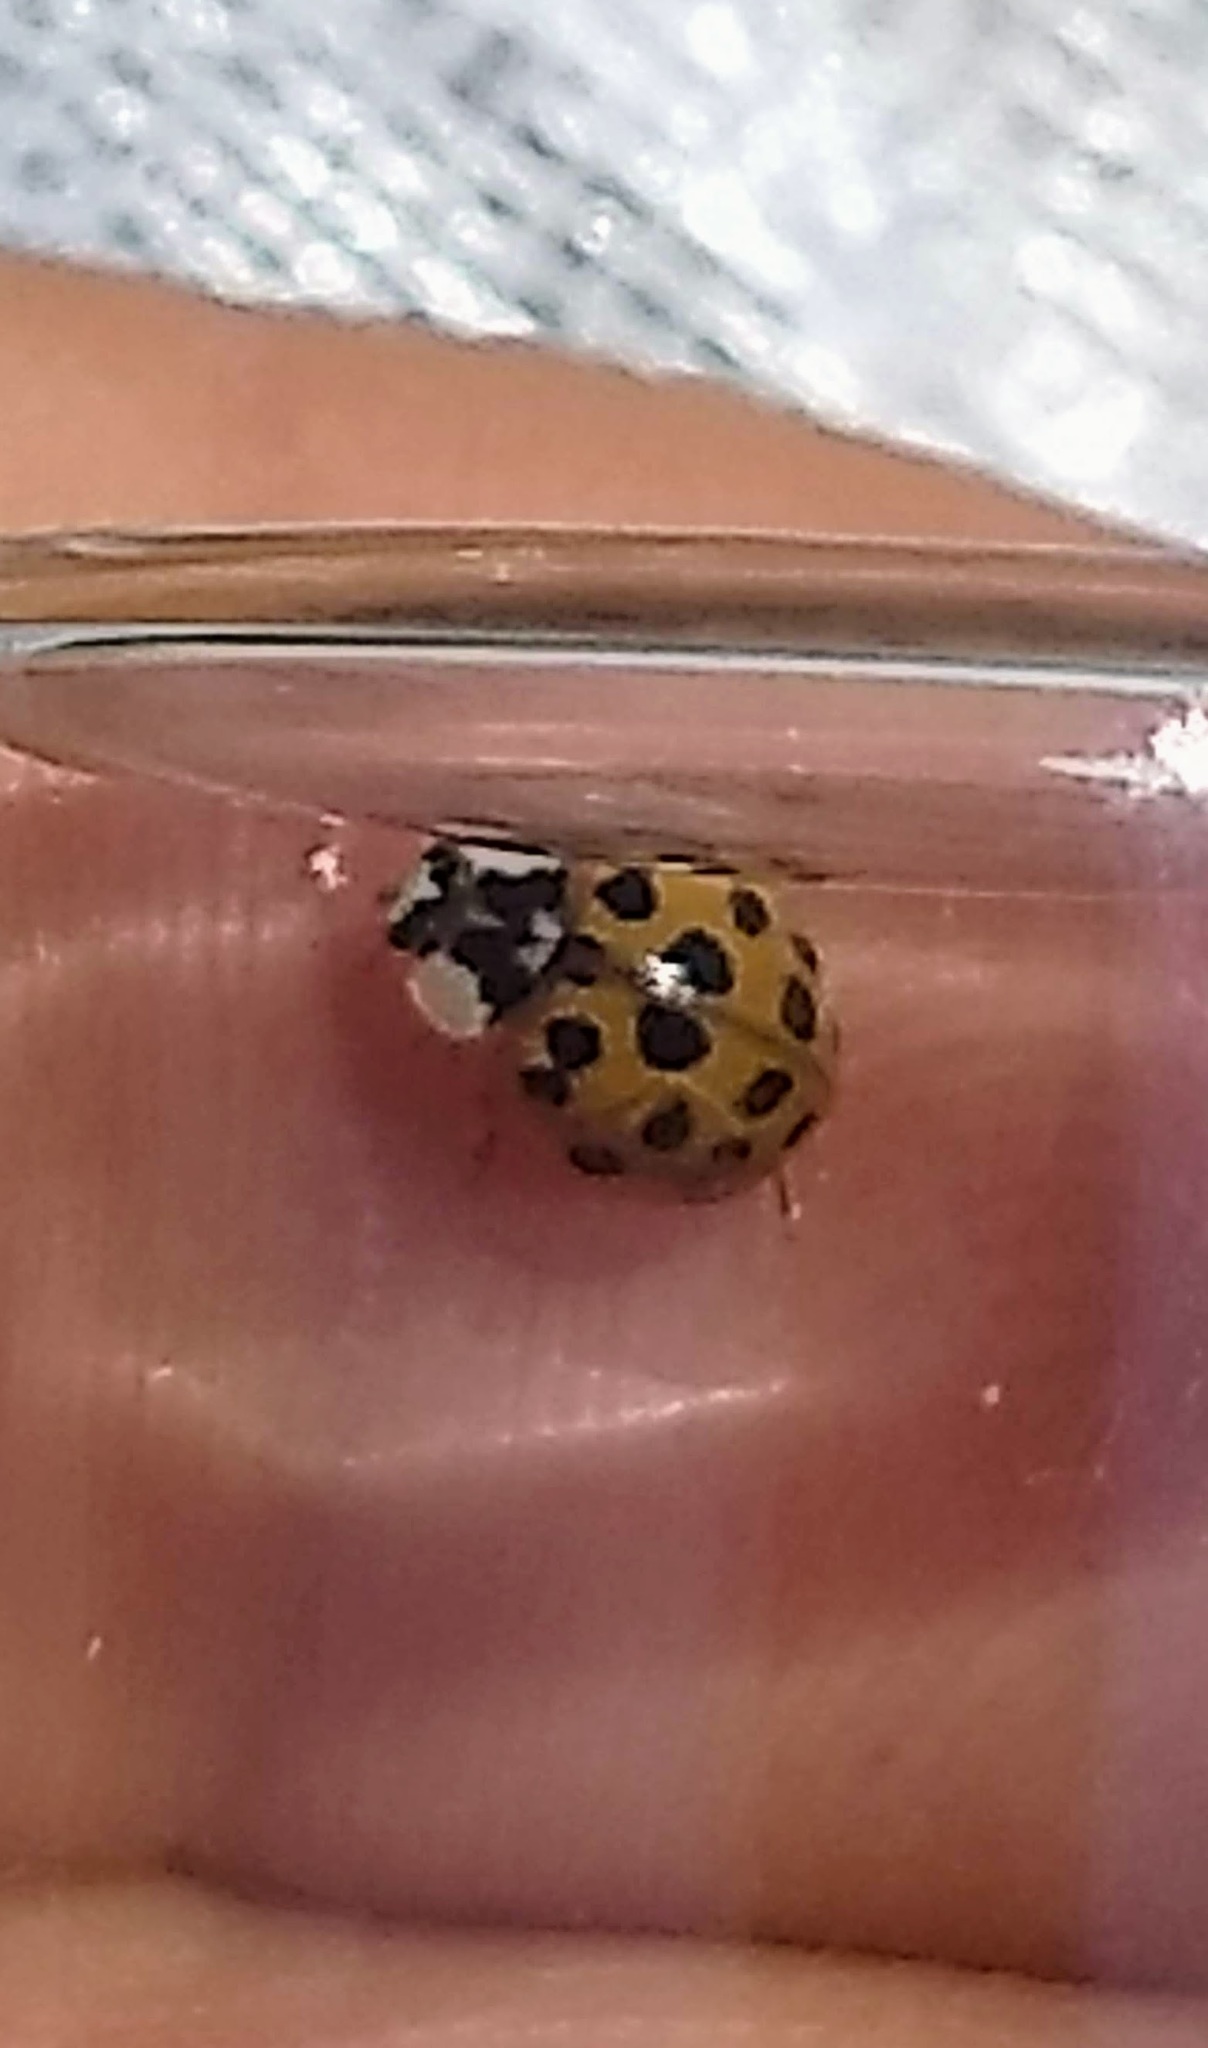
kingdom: Animalia
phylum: Arthropoda
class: Insecta
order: Coleoptera
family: Coccinellidae
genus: Harmonia
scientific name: Harmonia axyridis
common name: Harlequin ladybird
